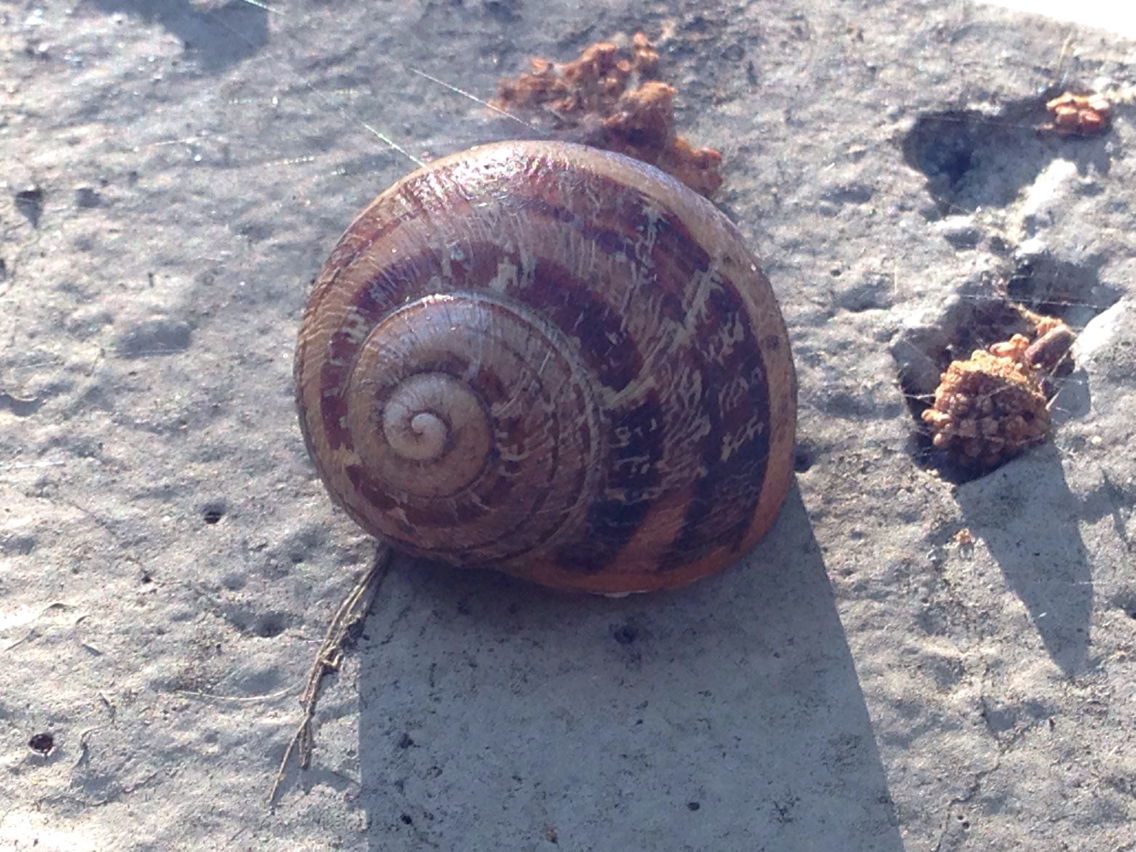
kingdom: Animalia
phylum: Mollusca
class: Gastropoda
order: Stylommatophora
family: Helicidae
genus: Cornu
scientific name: Cornu aspersum
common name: Brown garden snail
